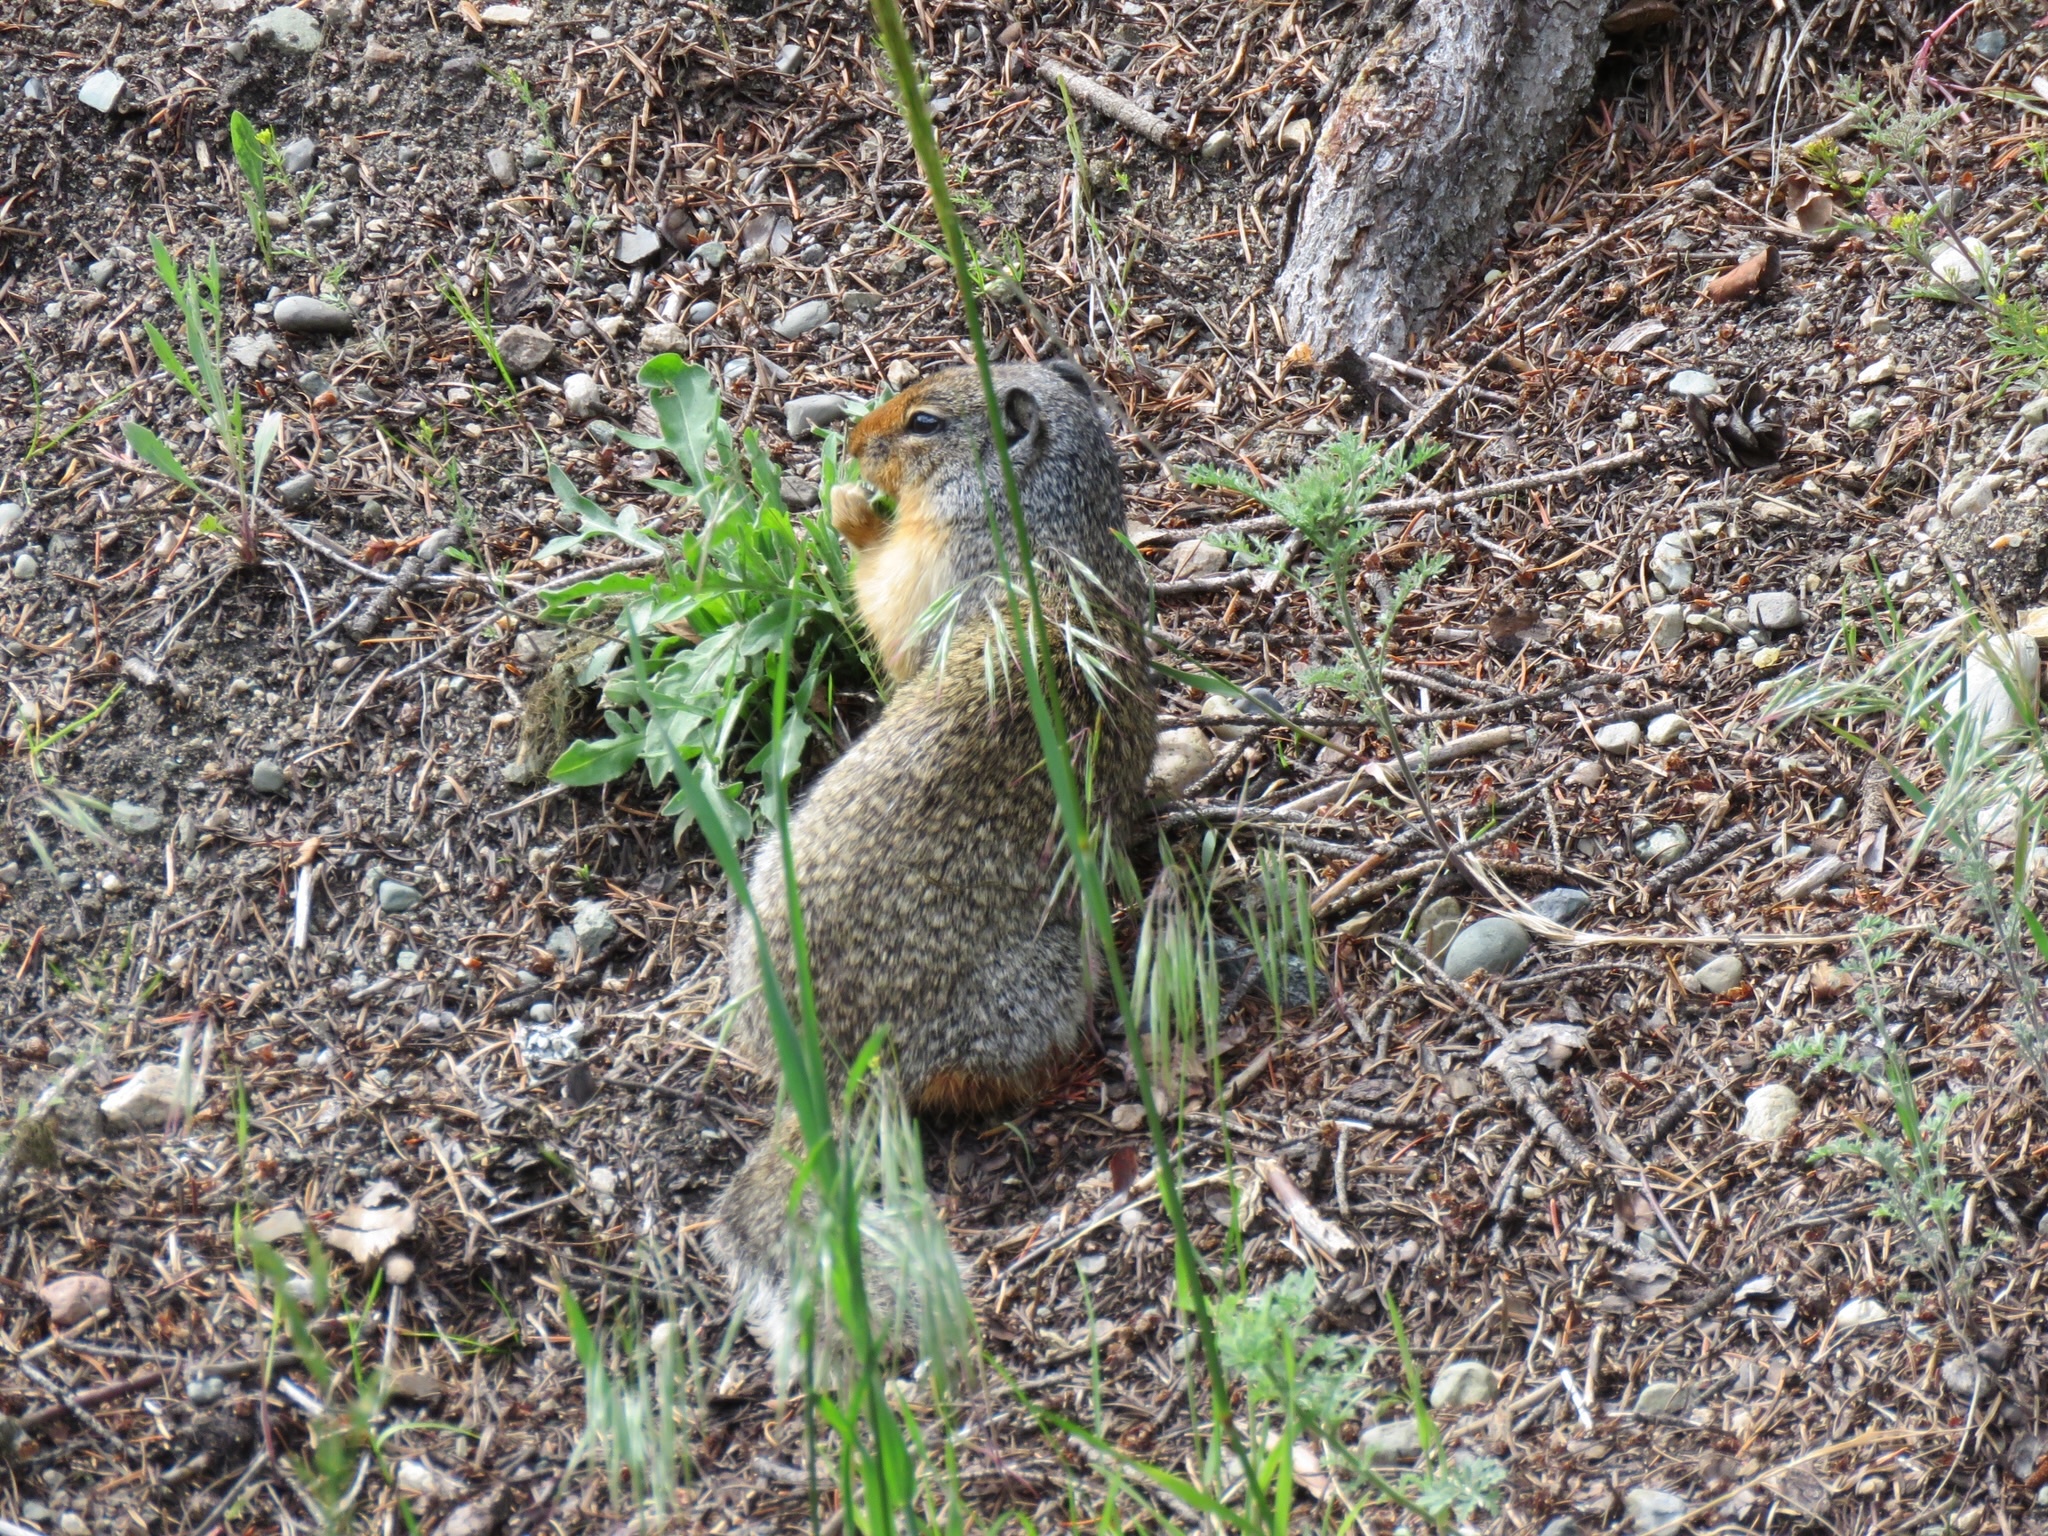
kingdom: Animalia
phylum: Chordata
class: Mammalia
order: Rodentia
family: Sciuridae
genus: Urocitellus
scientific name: Urocitellus columbianus
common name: Columbian ground squirrel
